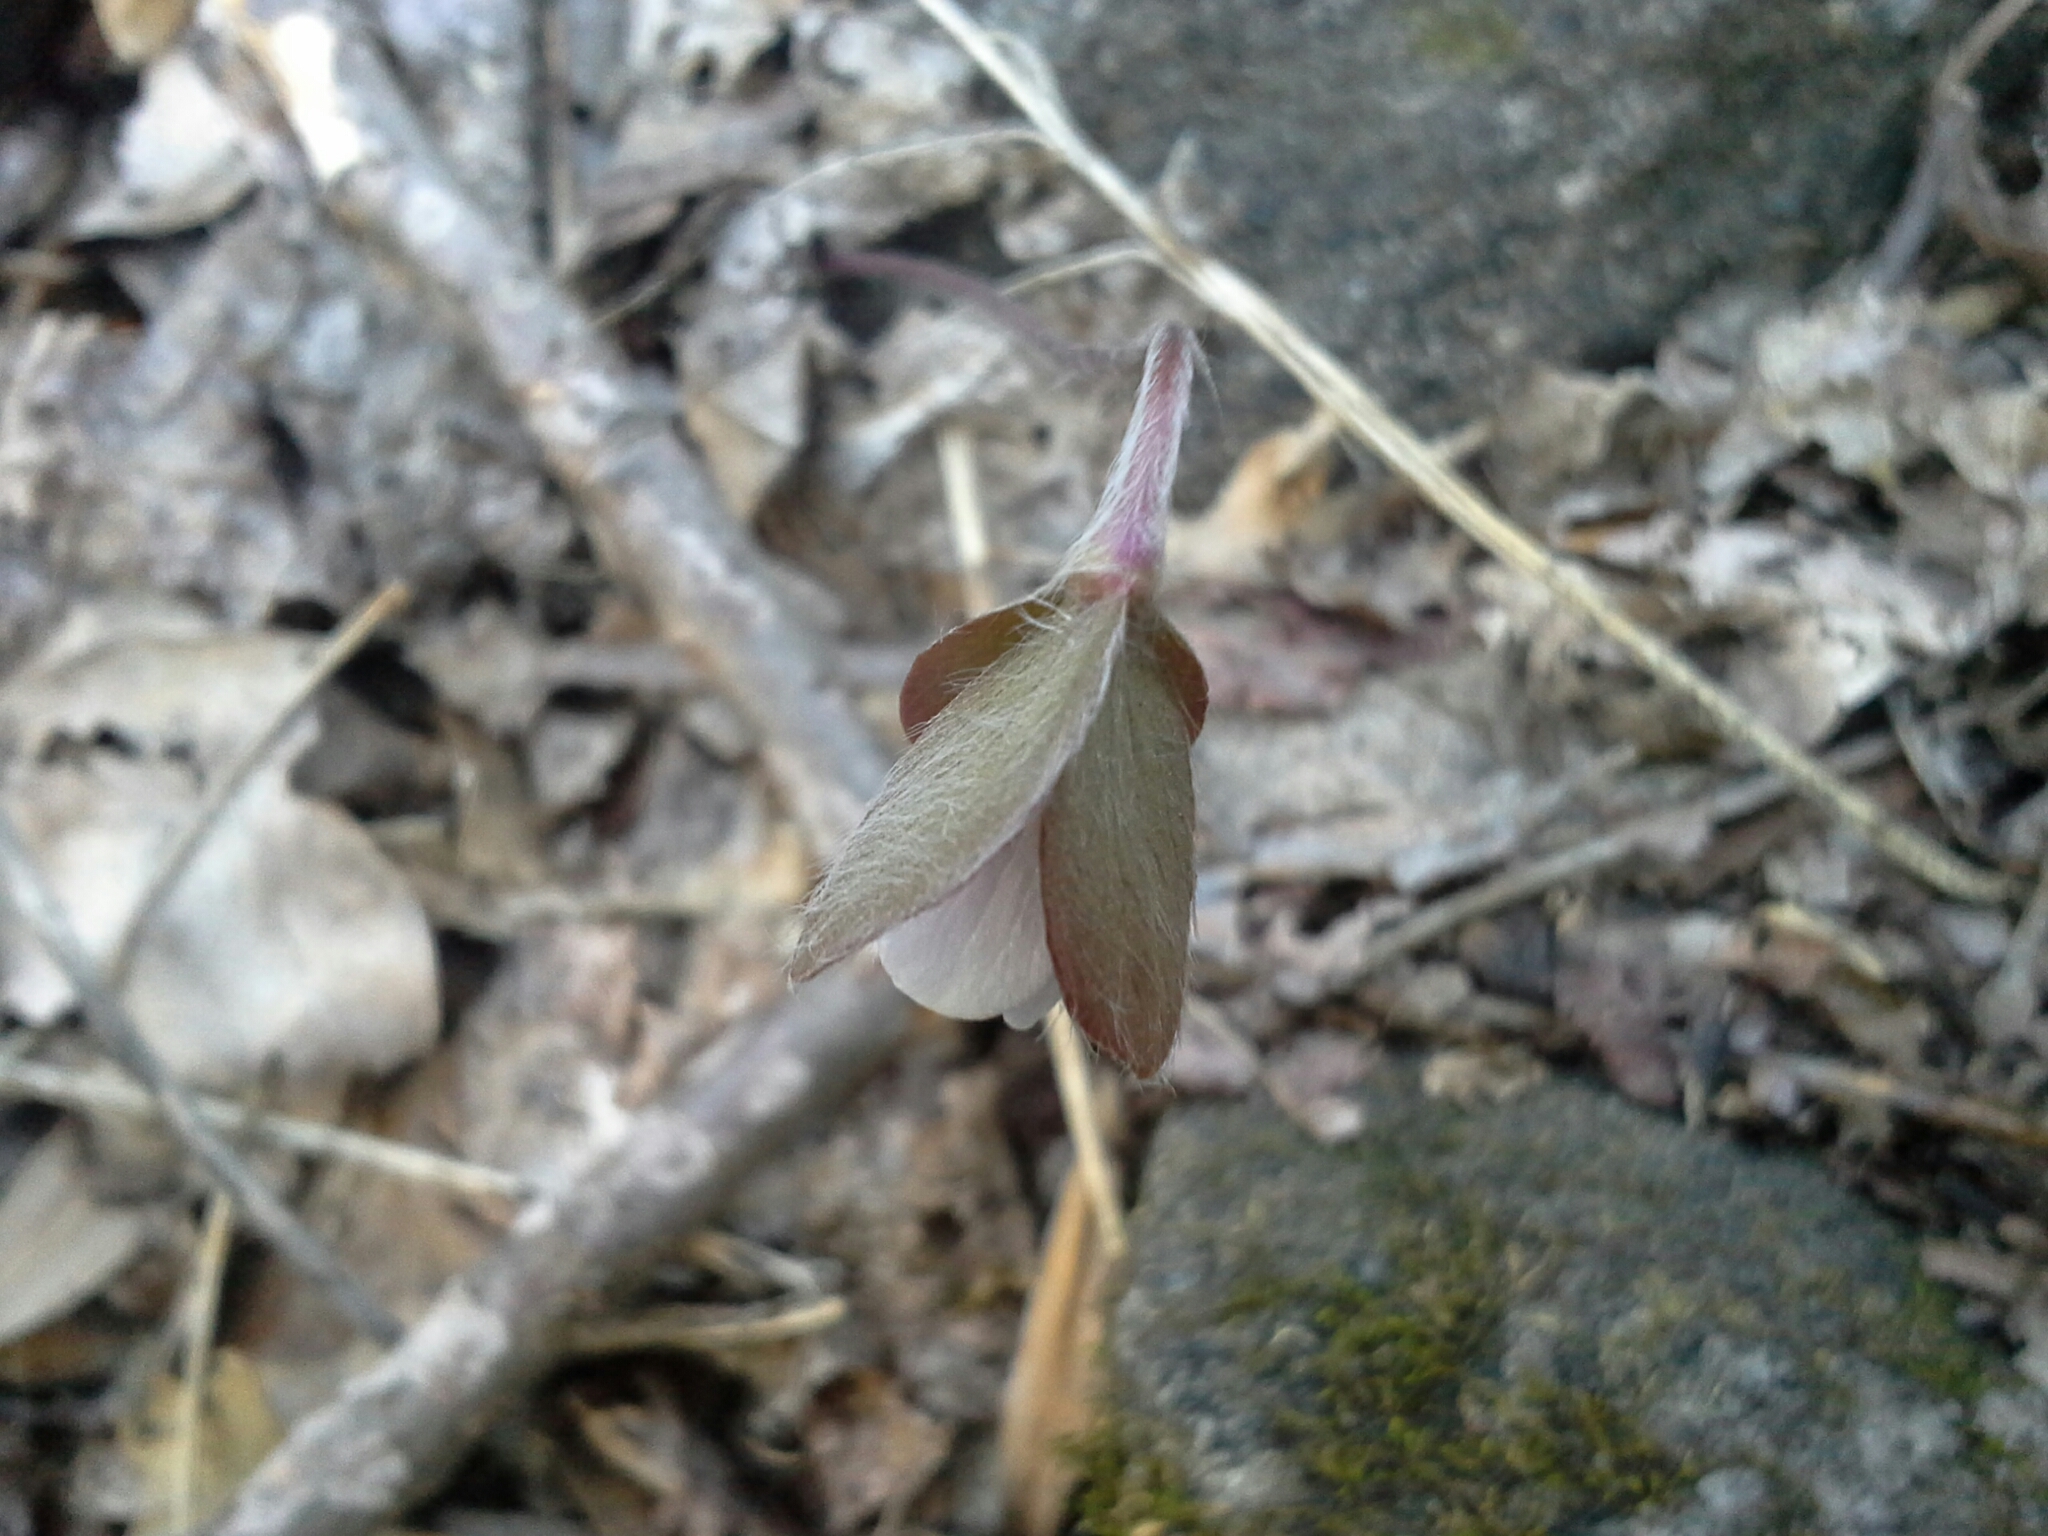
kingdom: Plantae
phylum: Tracheophyta
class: Magnoliopsida
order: Ranunculales
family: Ranunculaceae
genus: Hepatica
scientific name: Hepatica americana
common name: American hepatica
